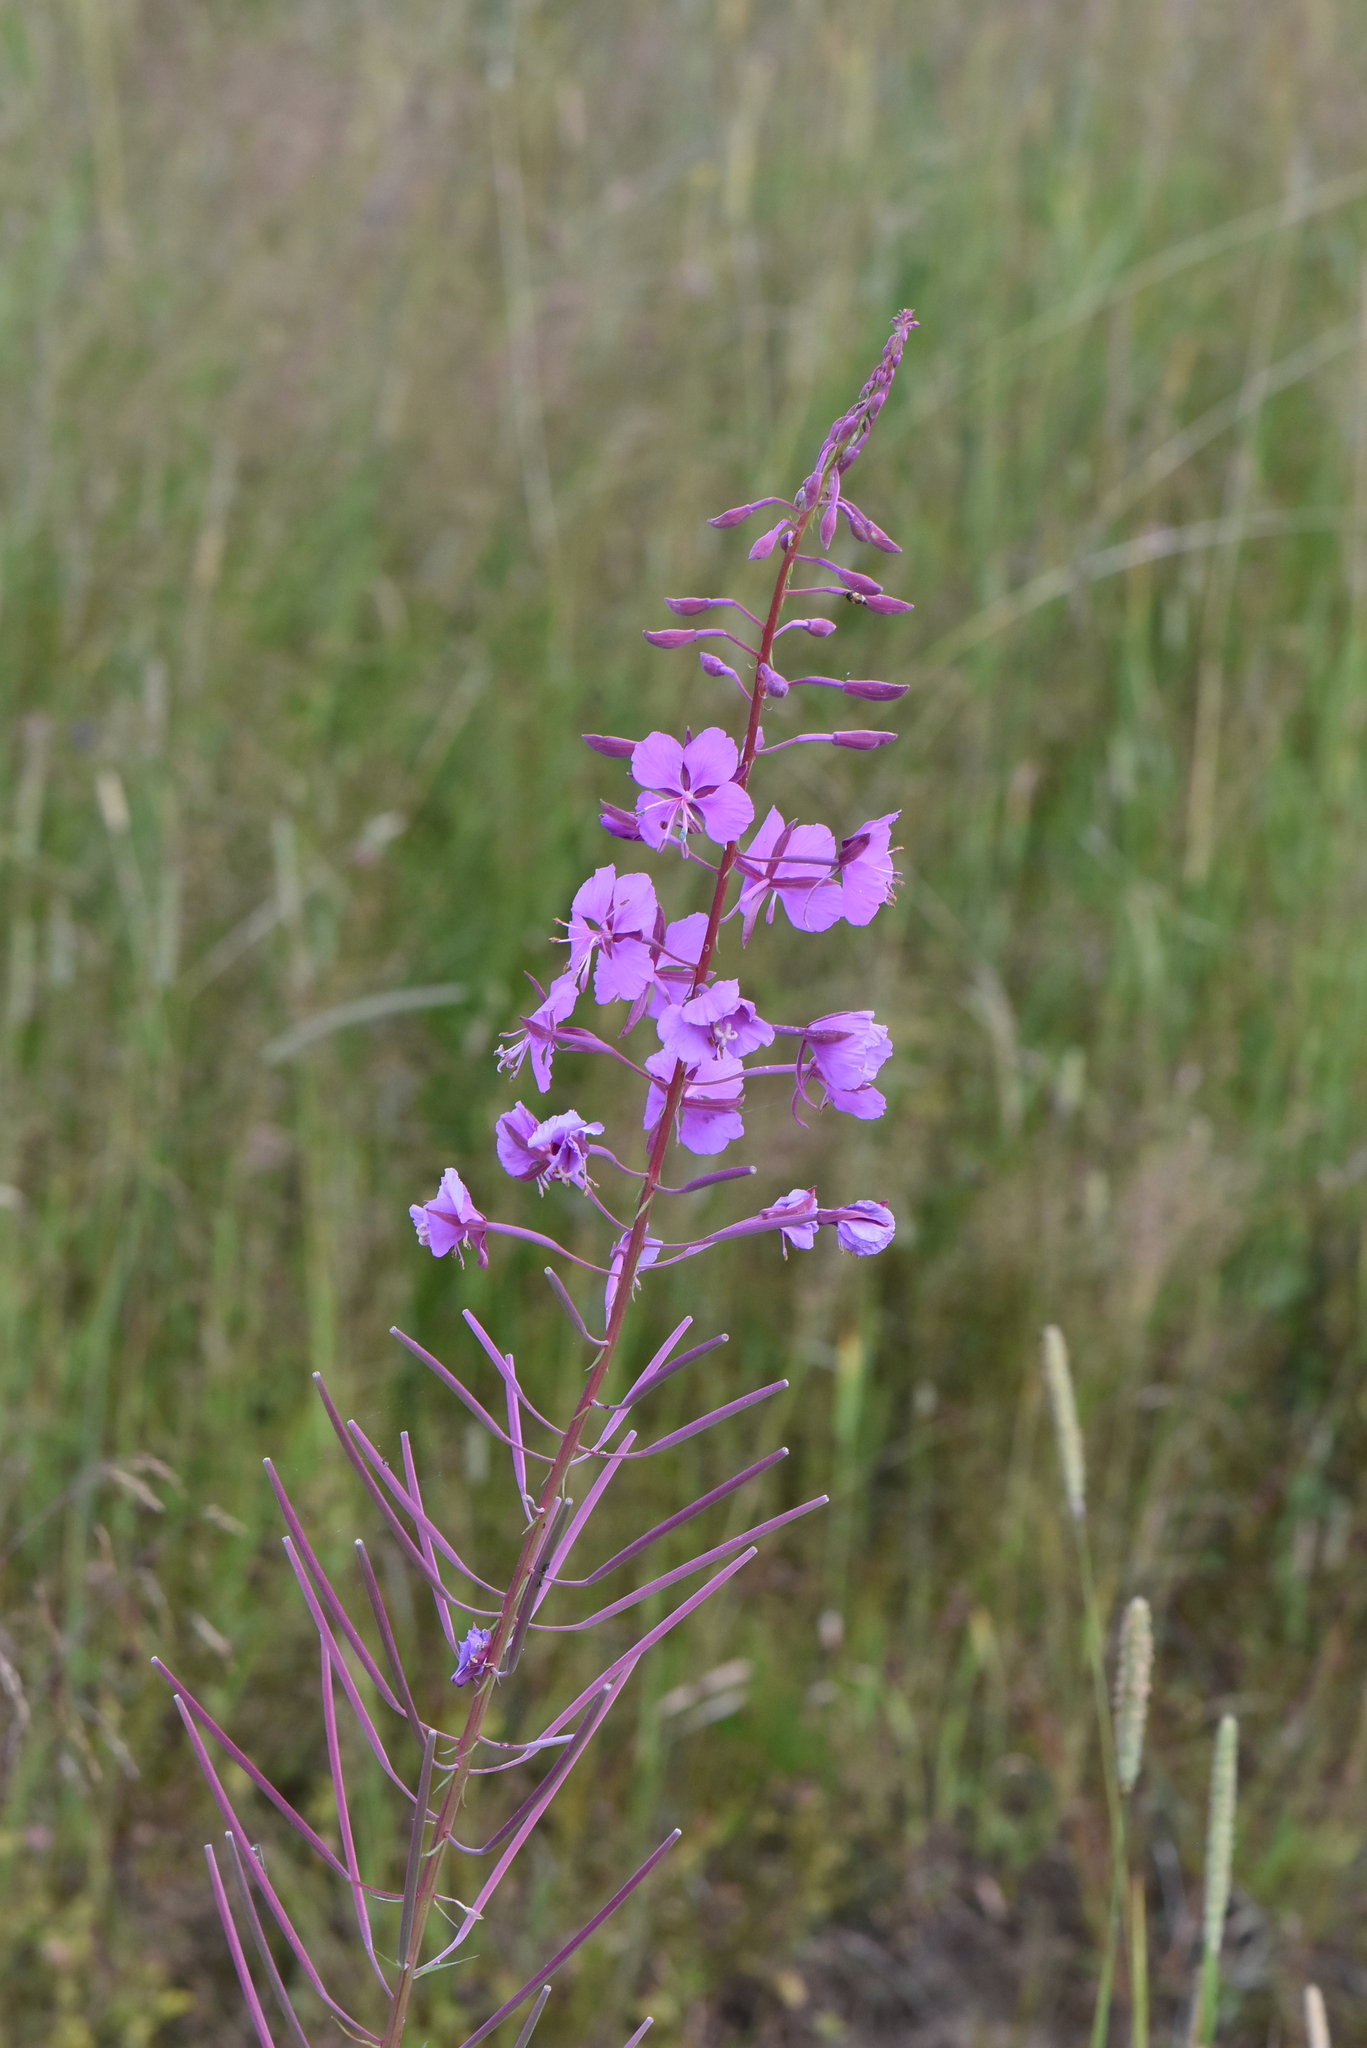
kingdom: Plantae
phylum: Tracheophyta
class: Magnoliopsida
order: Myrtales
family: Onagraceae
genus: Chamaenerion
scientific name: Chamaenerion angustifolium
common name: Fireweed
